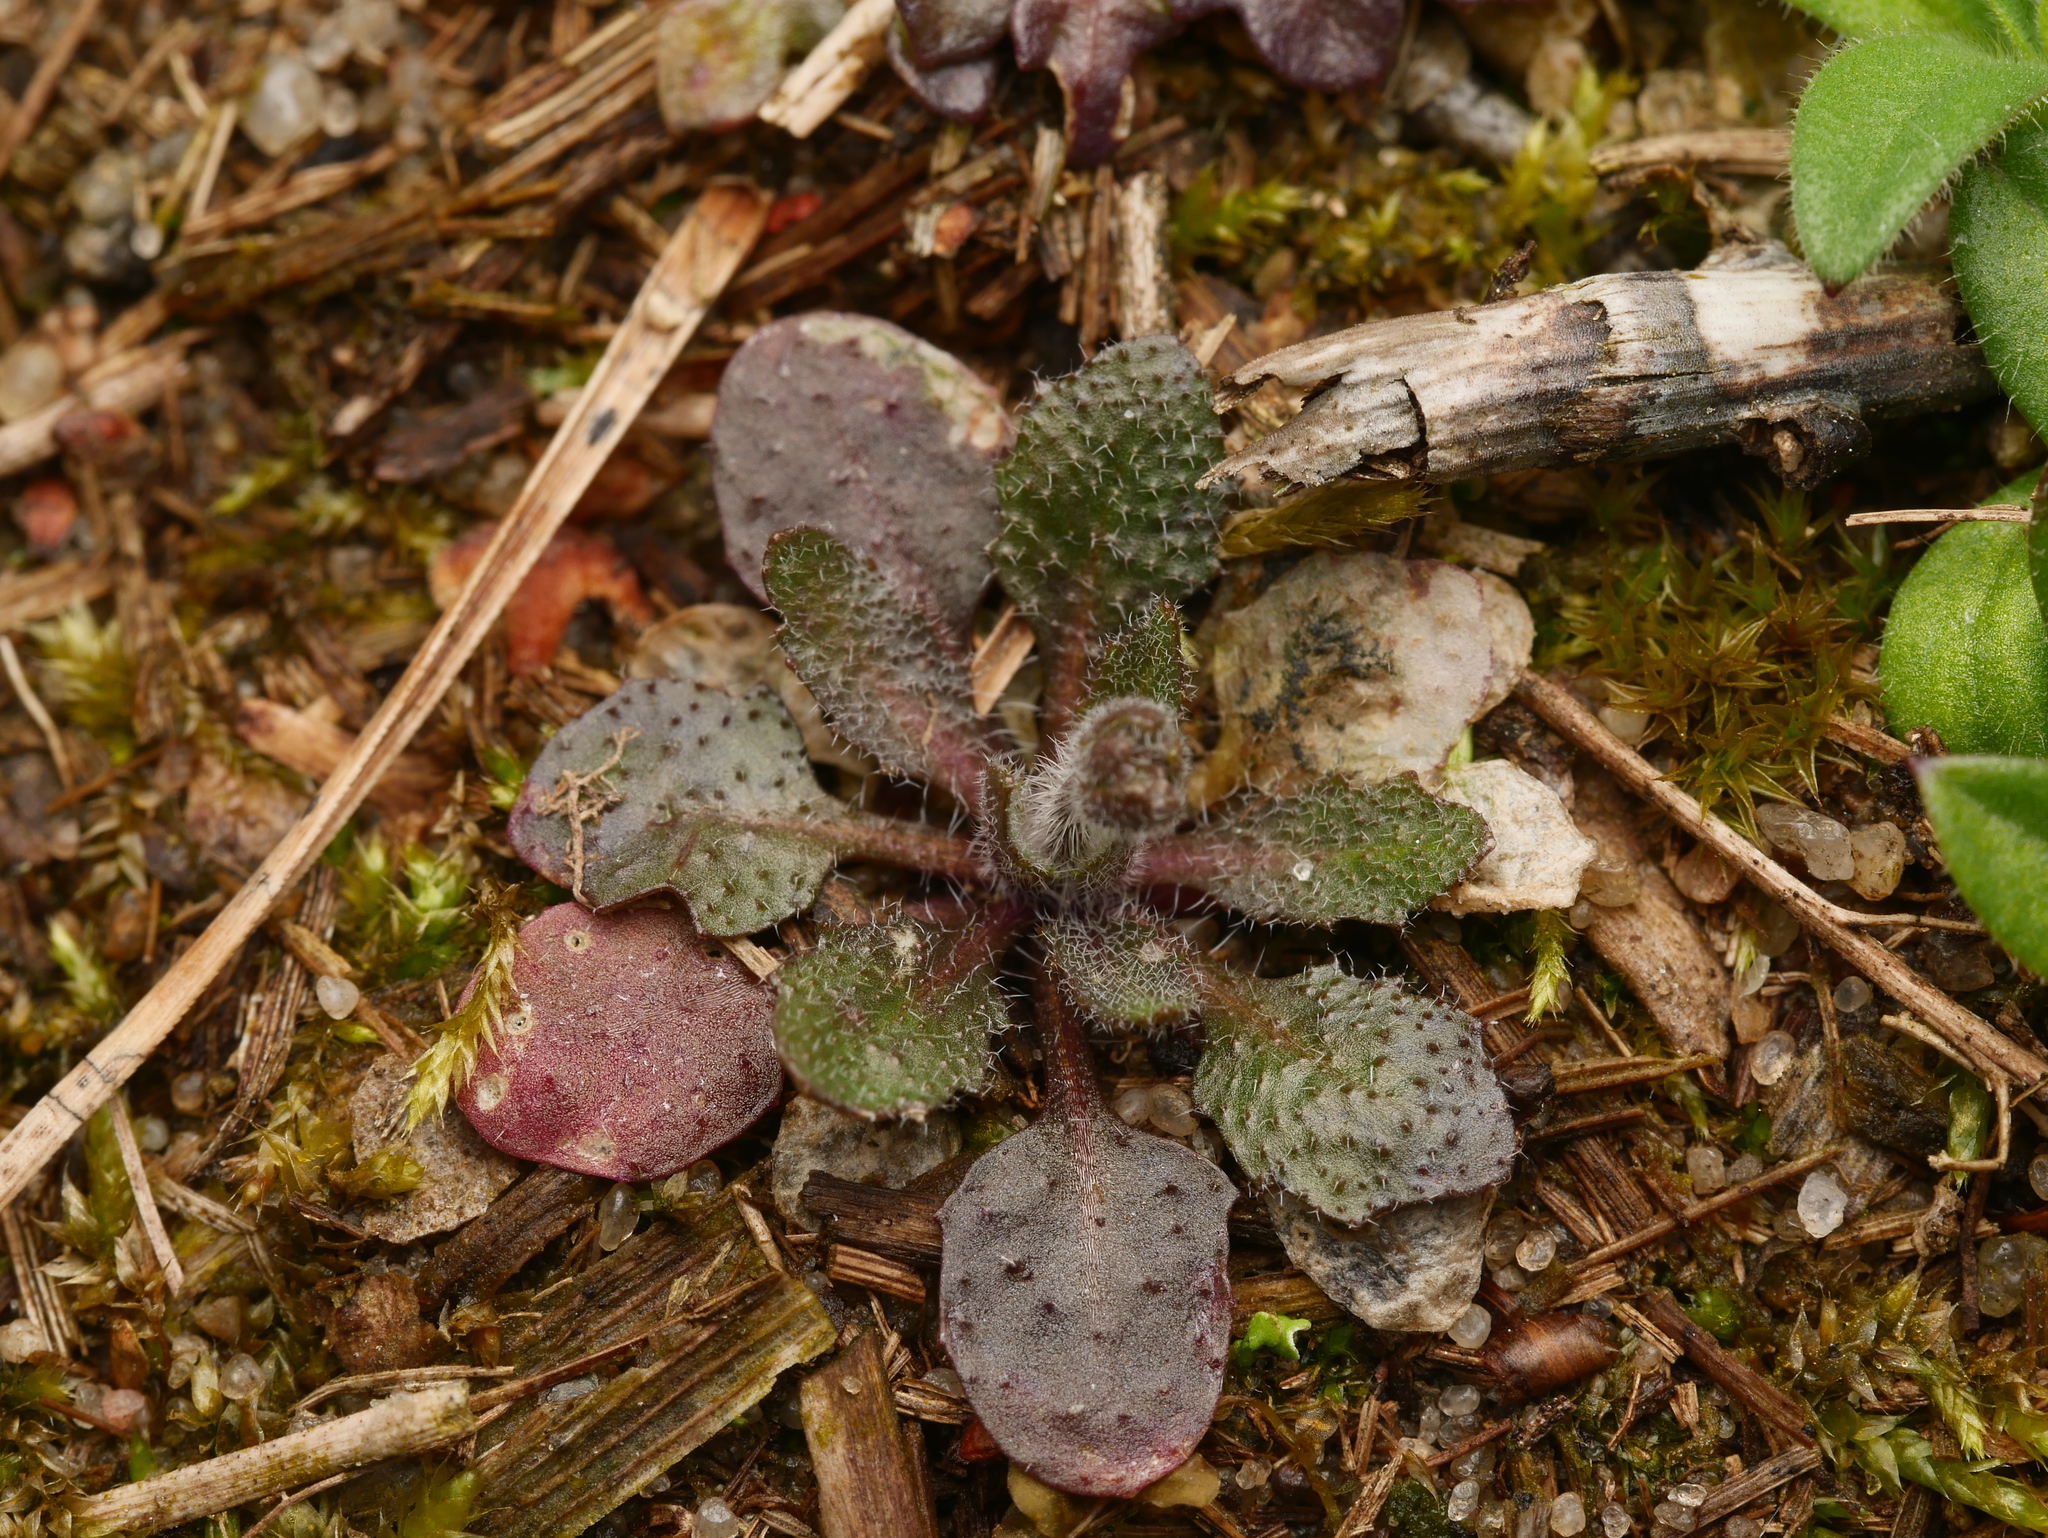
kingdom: Plantae
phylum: Tracheophyta
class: Magnoliopsida
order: Brassicales
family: Brassicaceae
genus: Arabidopsis
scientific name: Arabidopsis thaliana
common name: Thale cress
